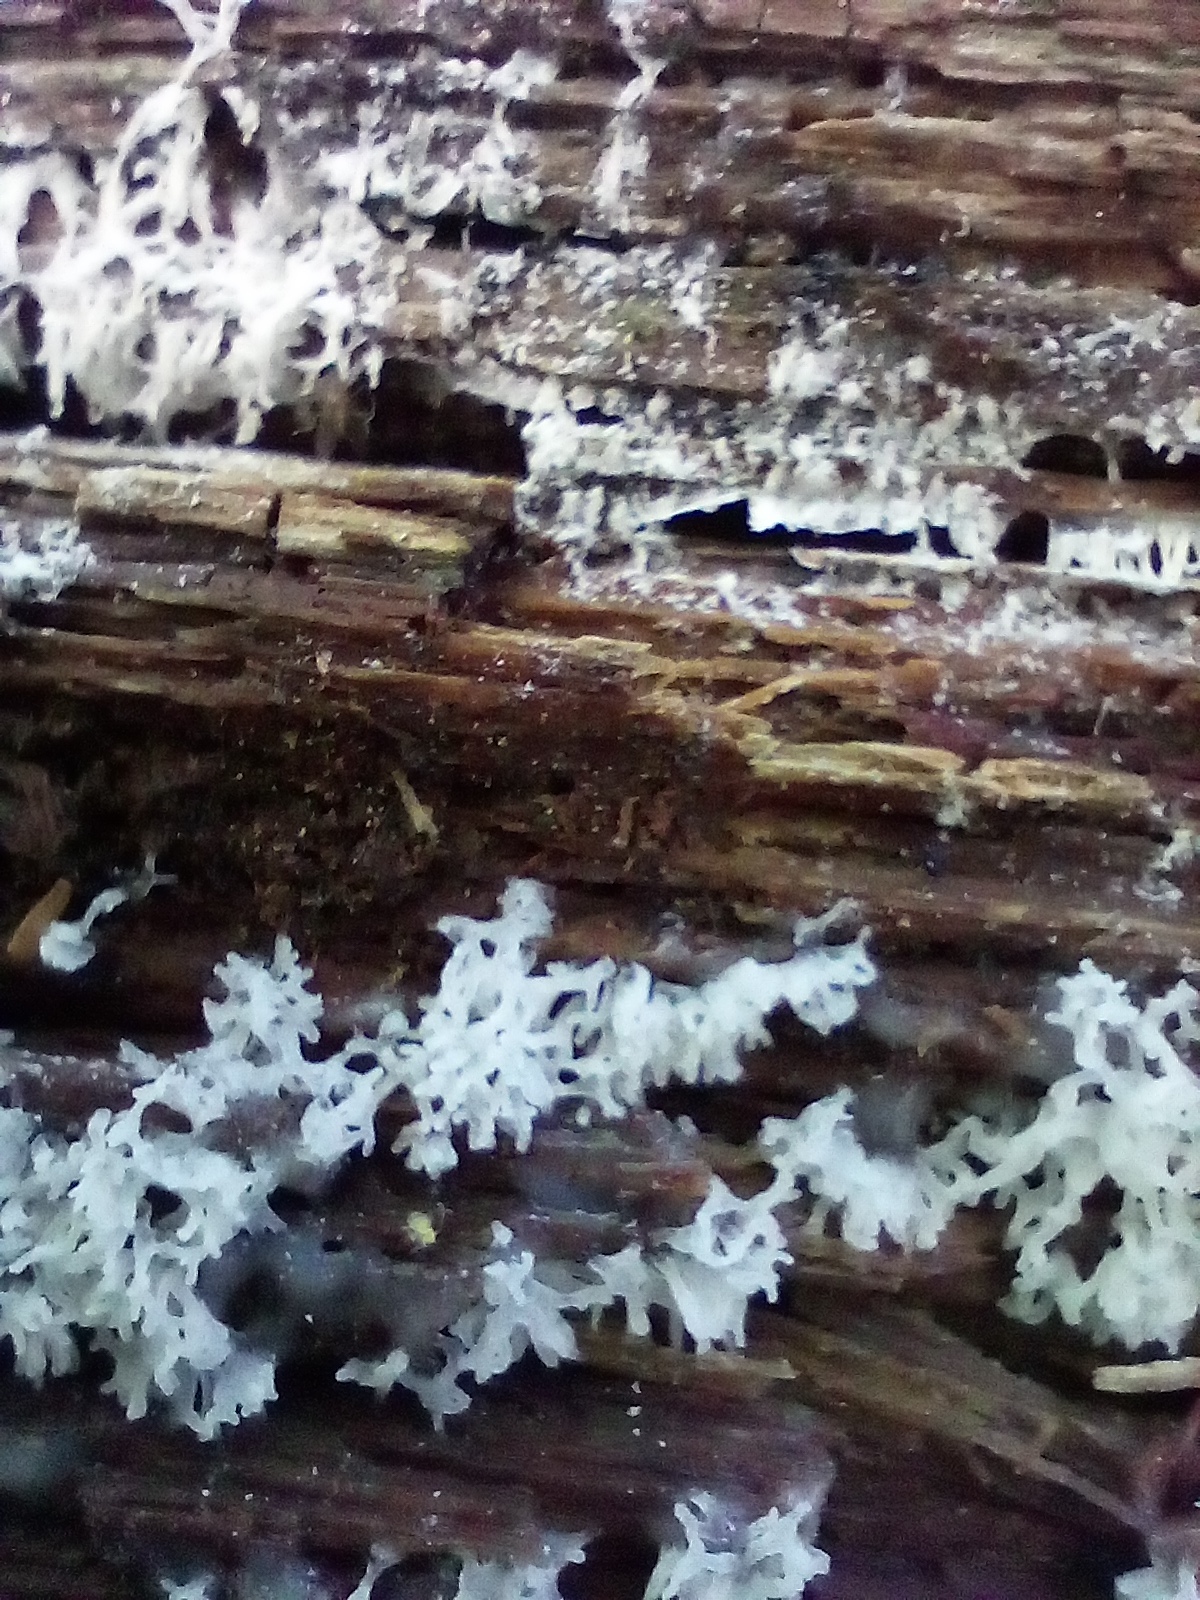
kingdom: Protozoa
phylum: Mycetozoa
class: Protosteliomycetes
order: Ceratiomyxales
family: Ceratiomyxaceae
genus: Ceratiomyxa
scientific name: Ceratiomyxa fruticulosa
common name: Honeycomb coral slime mold
